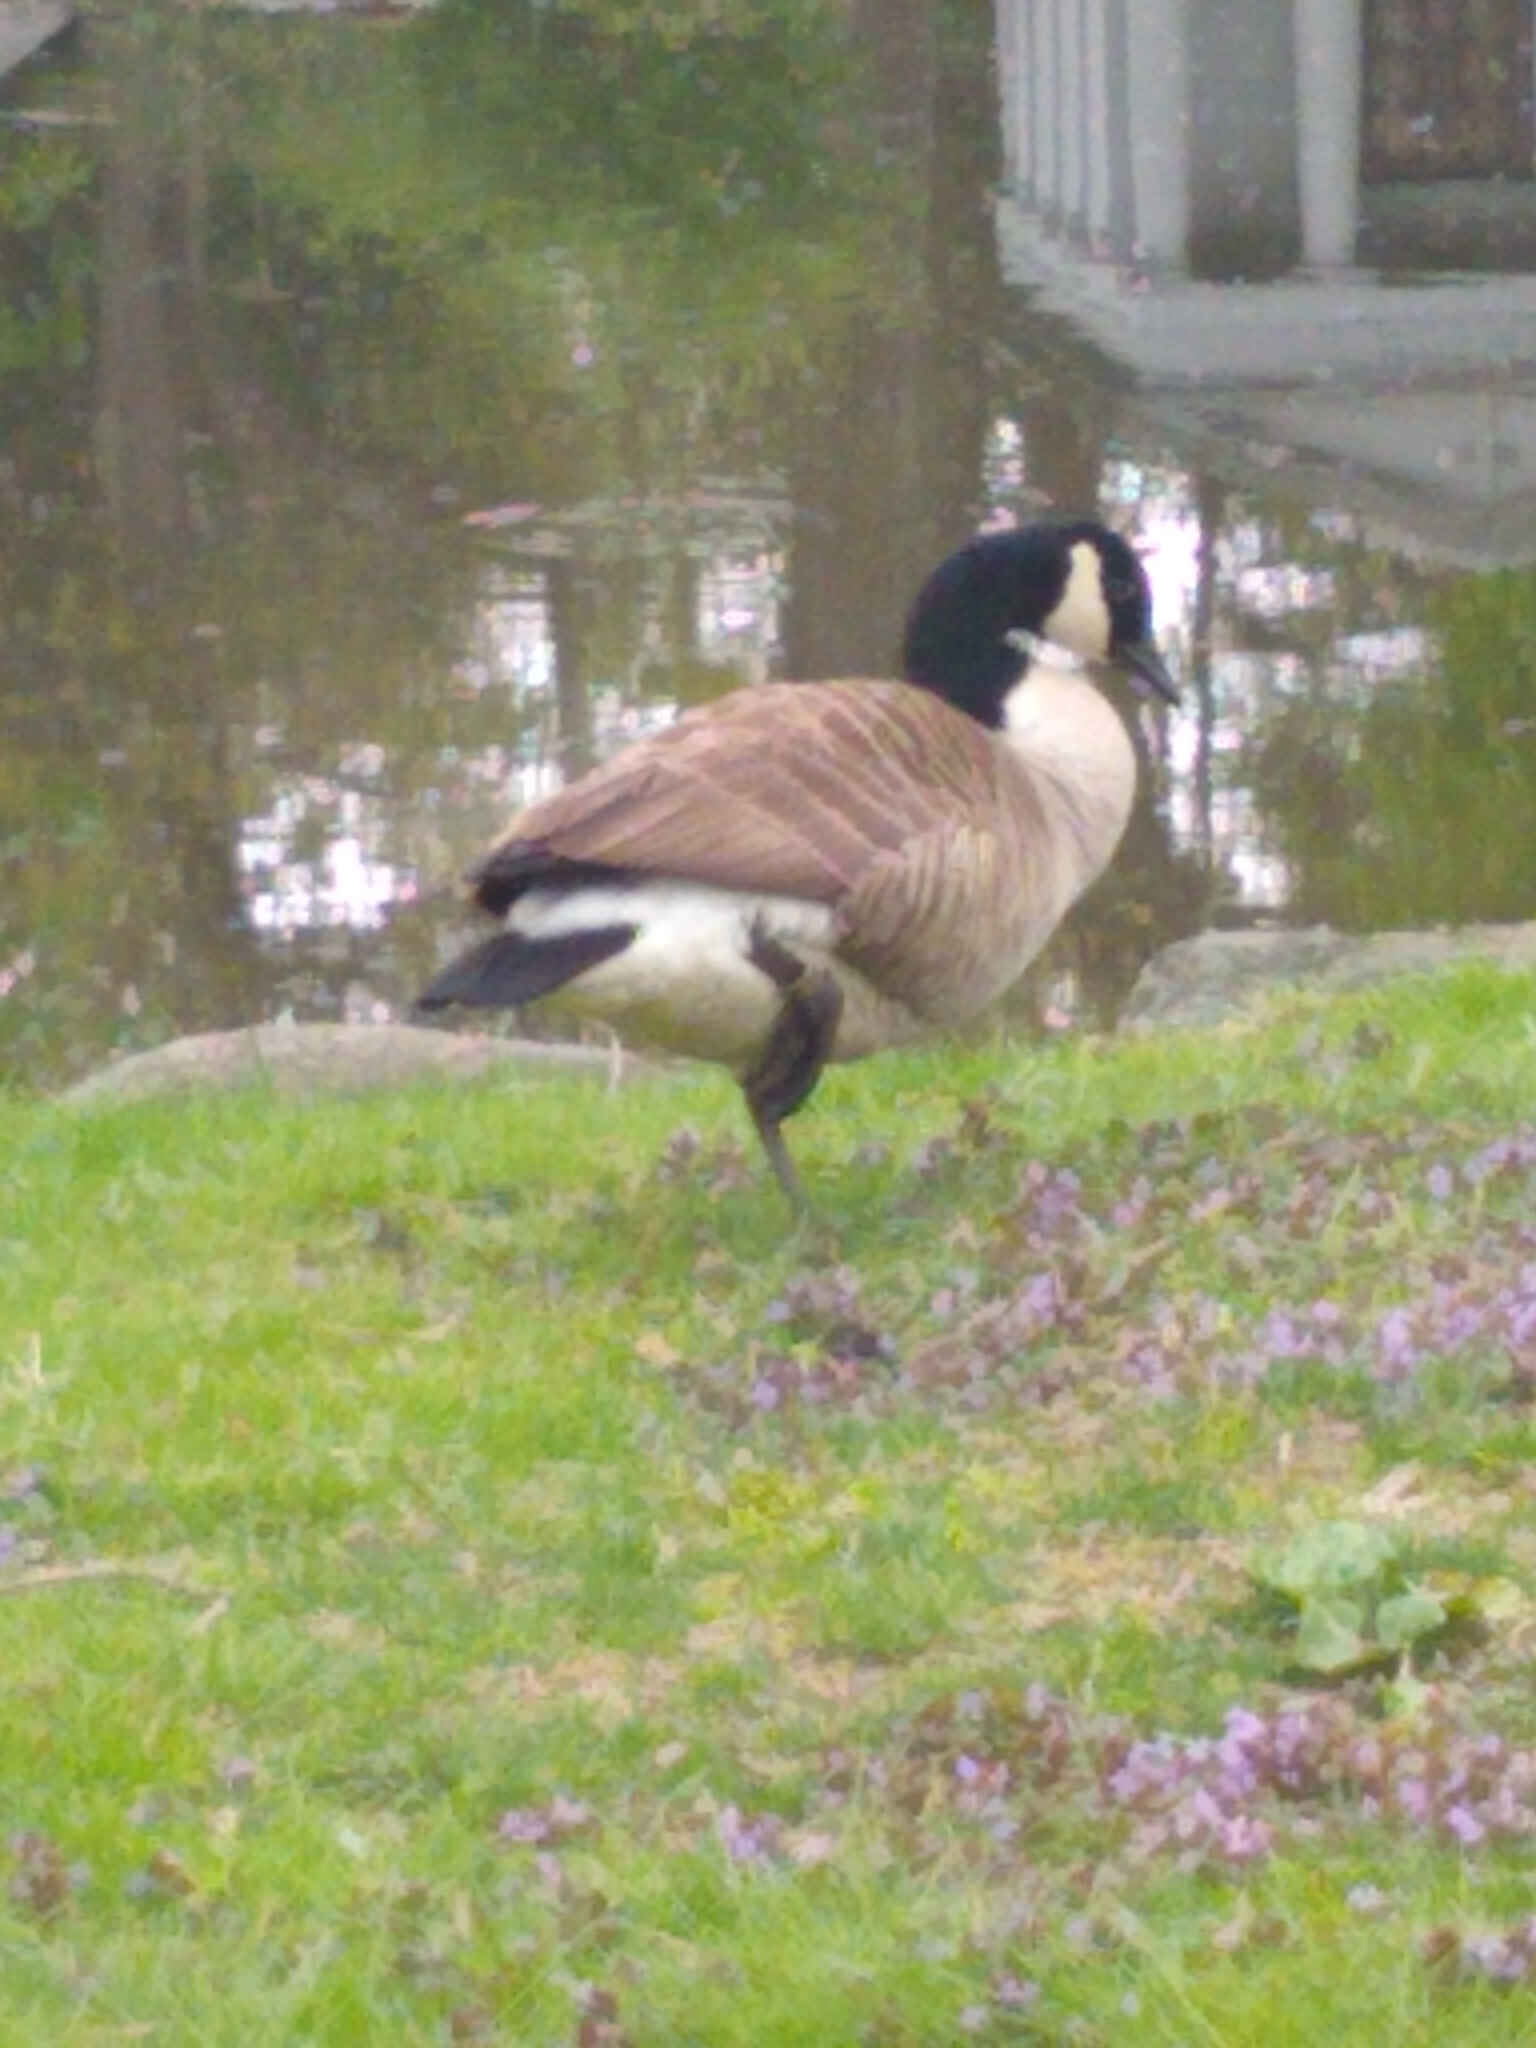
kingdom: Animalia
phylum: Chordata
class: Aves
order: Anseriformes
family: Anatidae
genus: Branta
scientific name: Branta canadensis
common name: Canada goose
